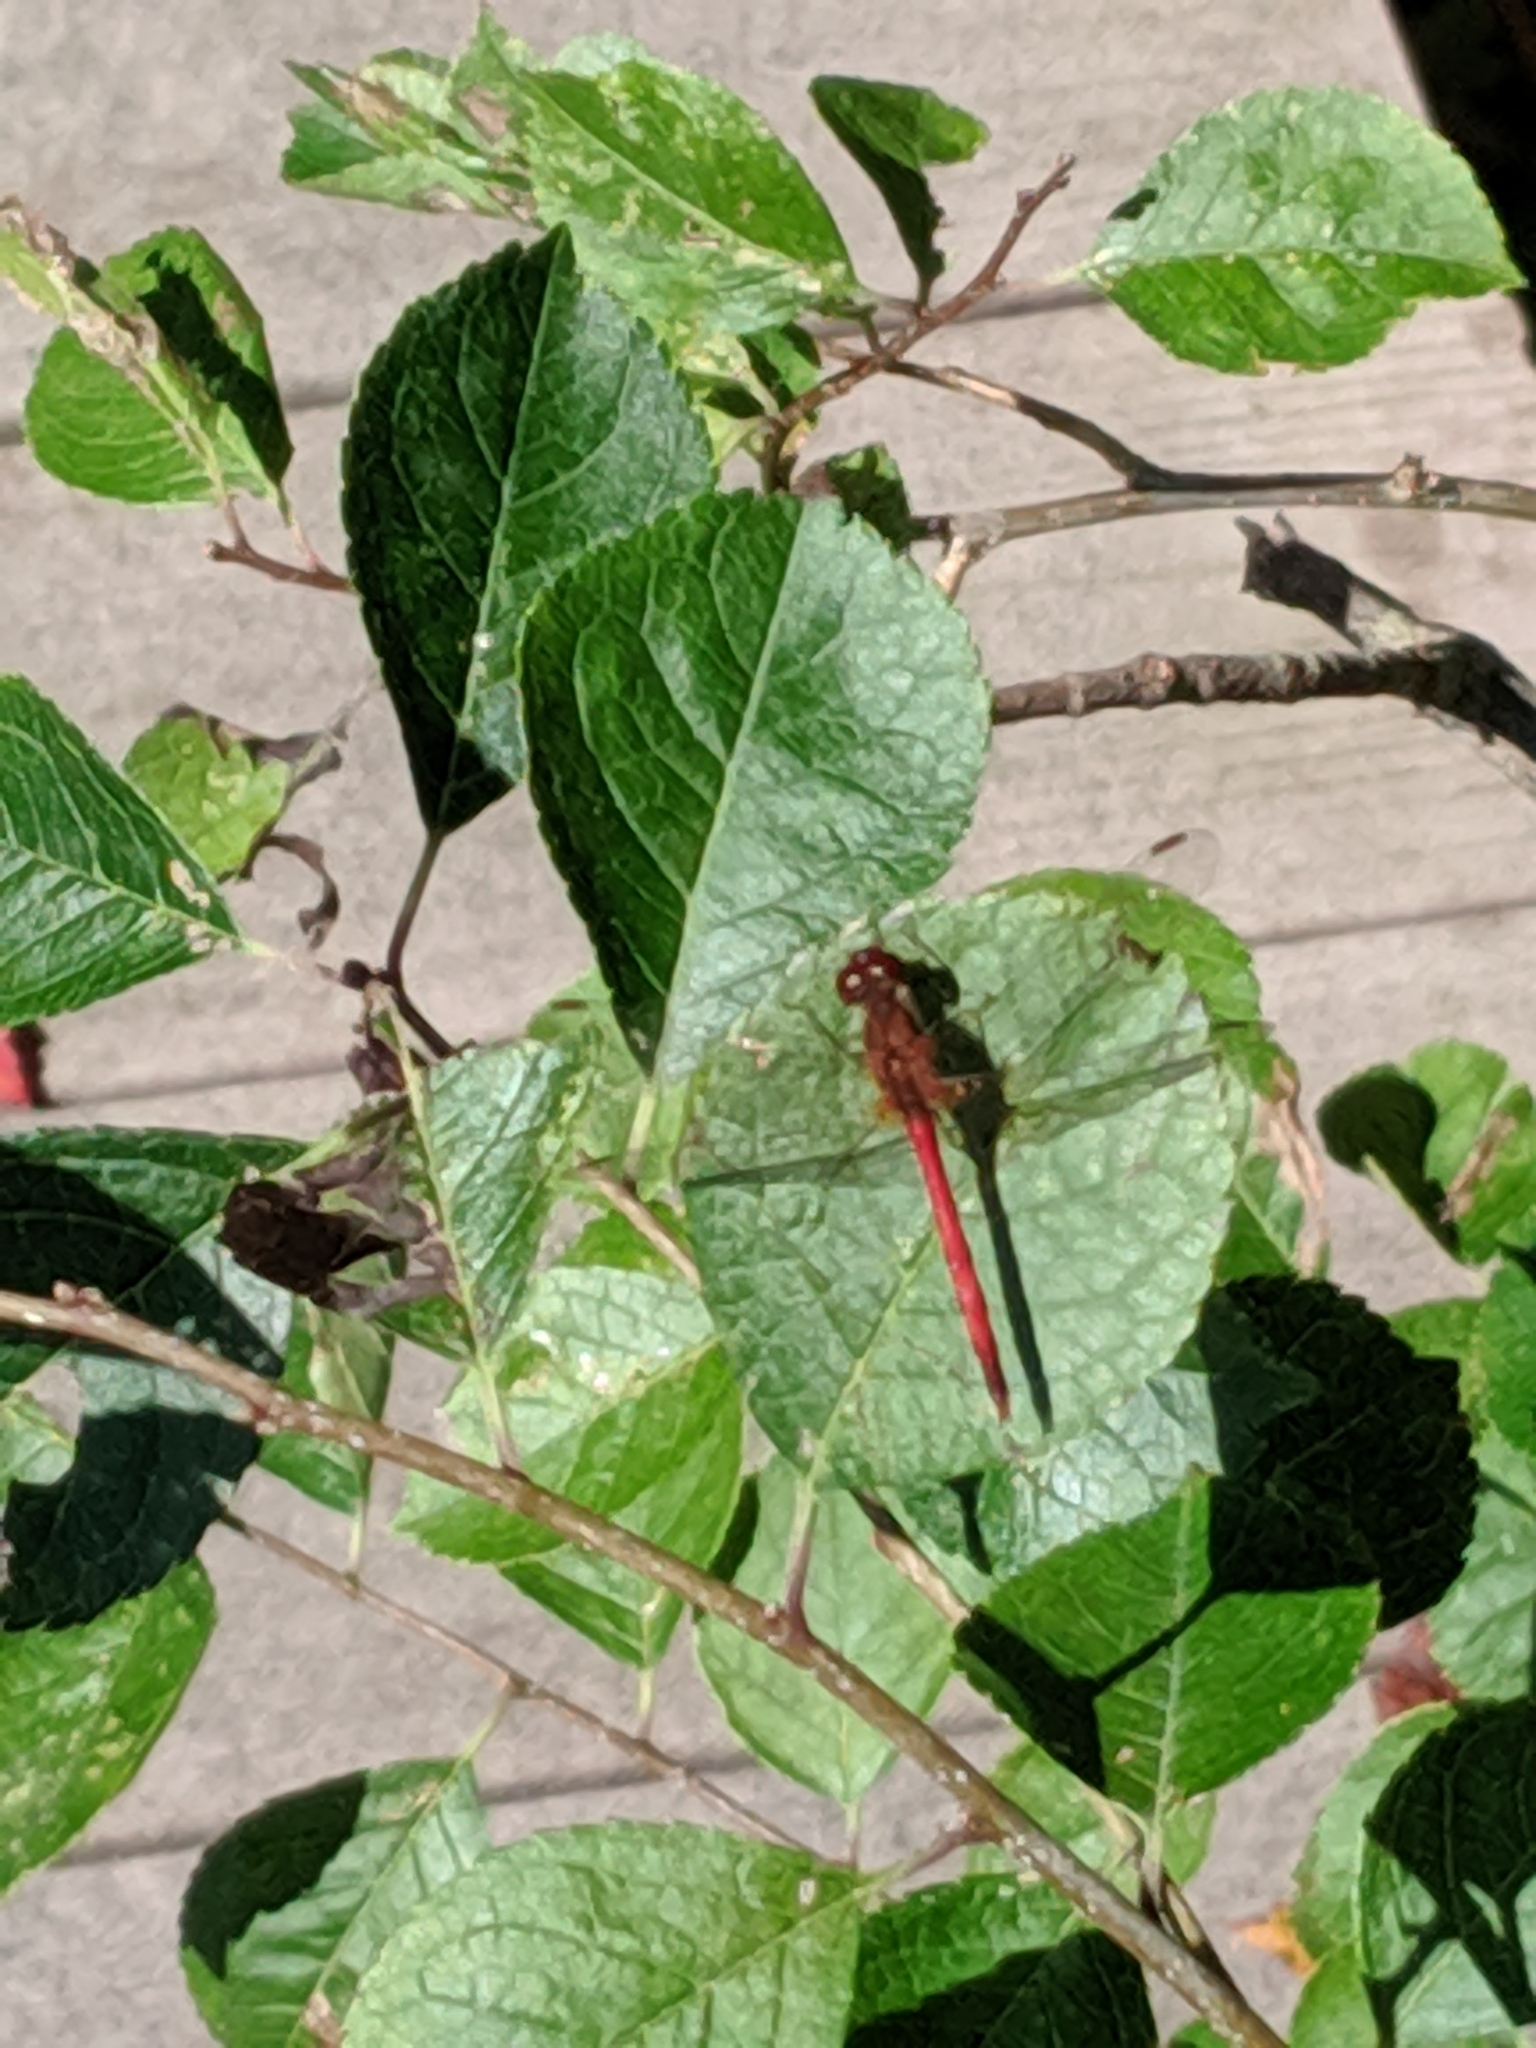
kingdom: Animalia
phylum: Arthropoda
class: Insecta
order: Odonata
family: Libellulidae
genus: Sympetrum
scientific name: Sympetrum vicinum
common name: Autumn meadowhawk
